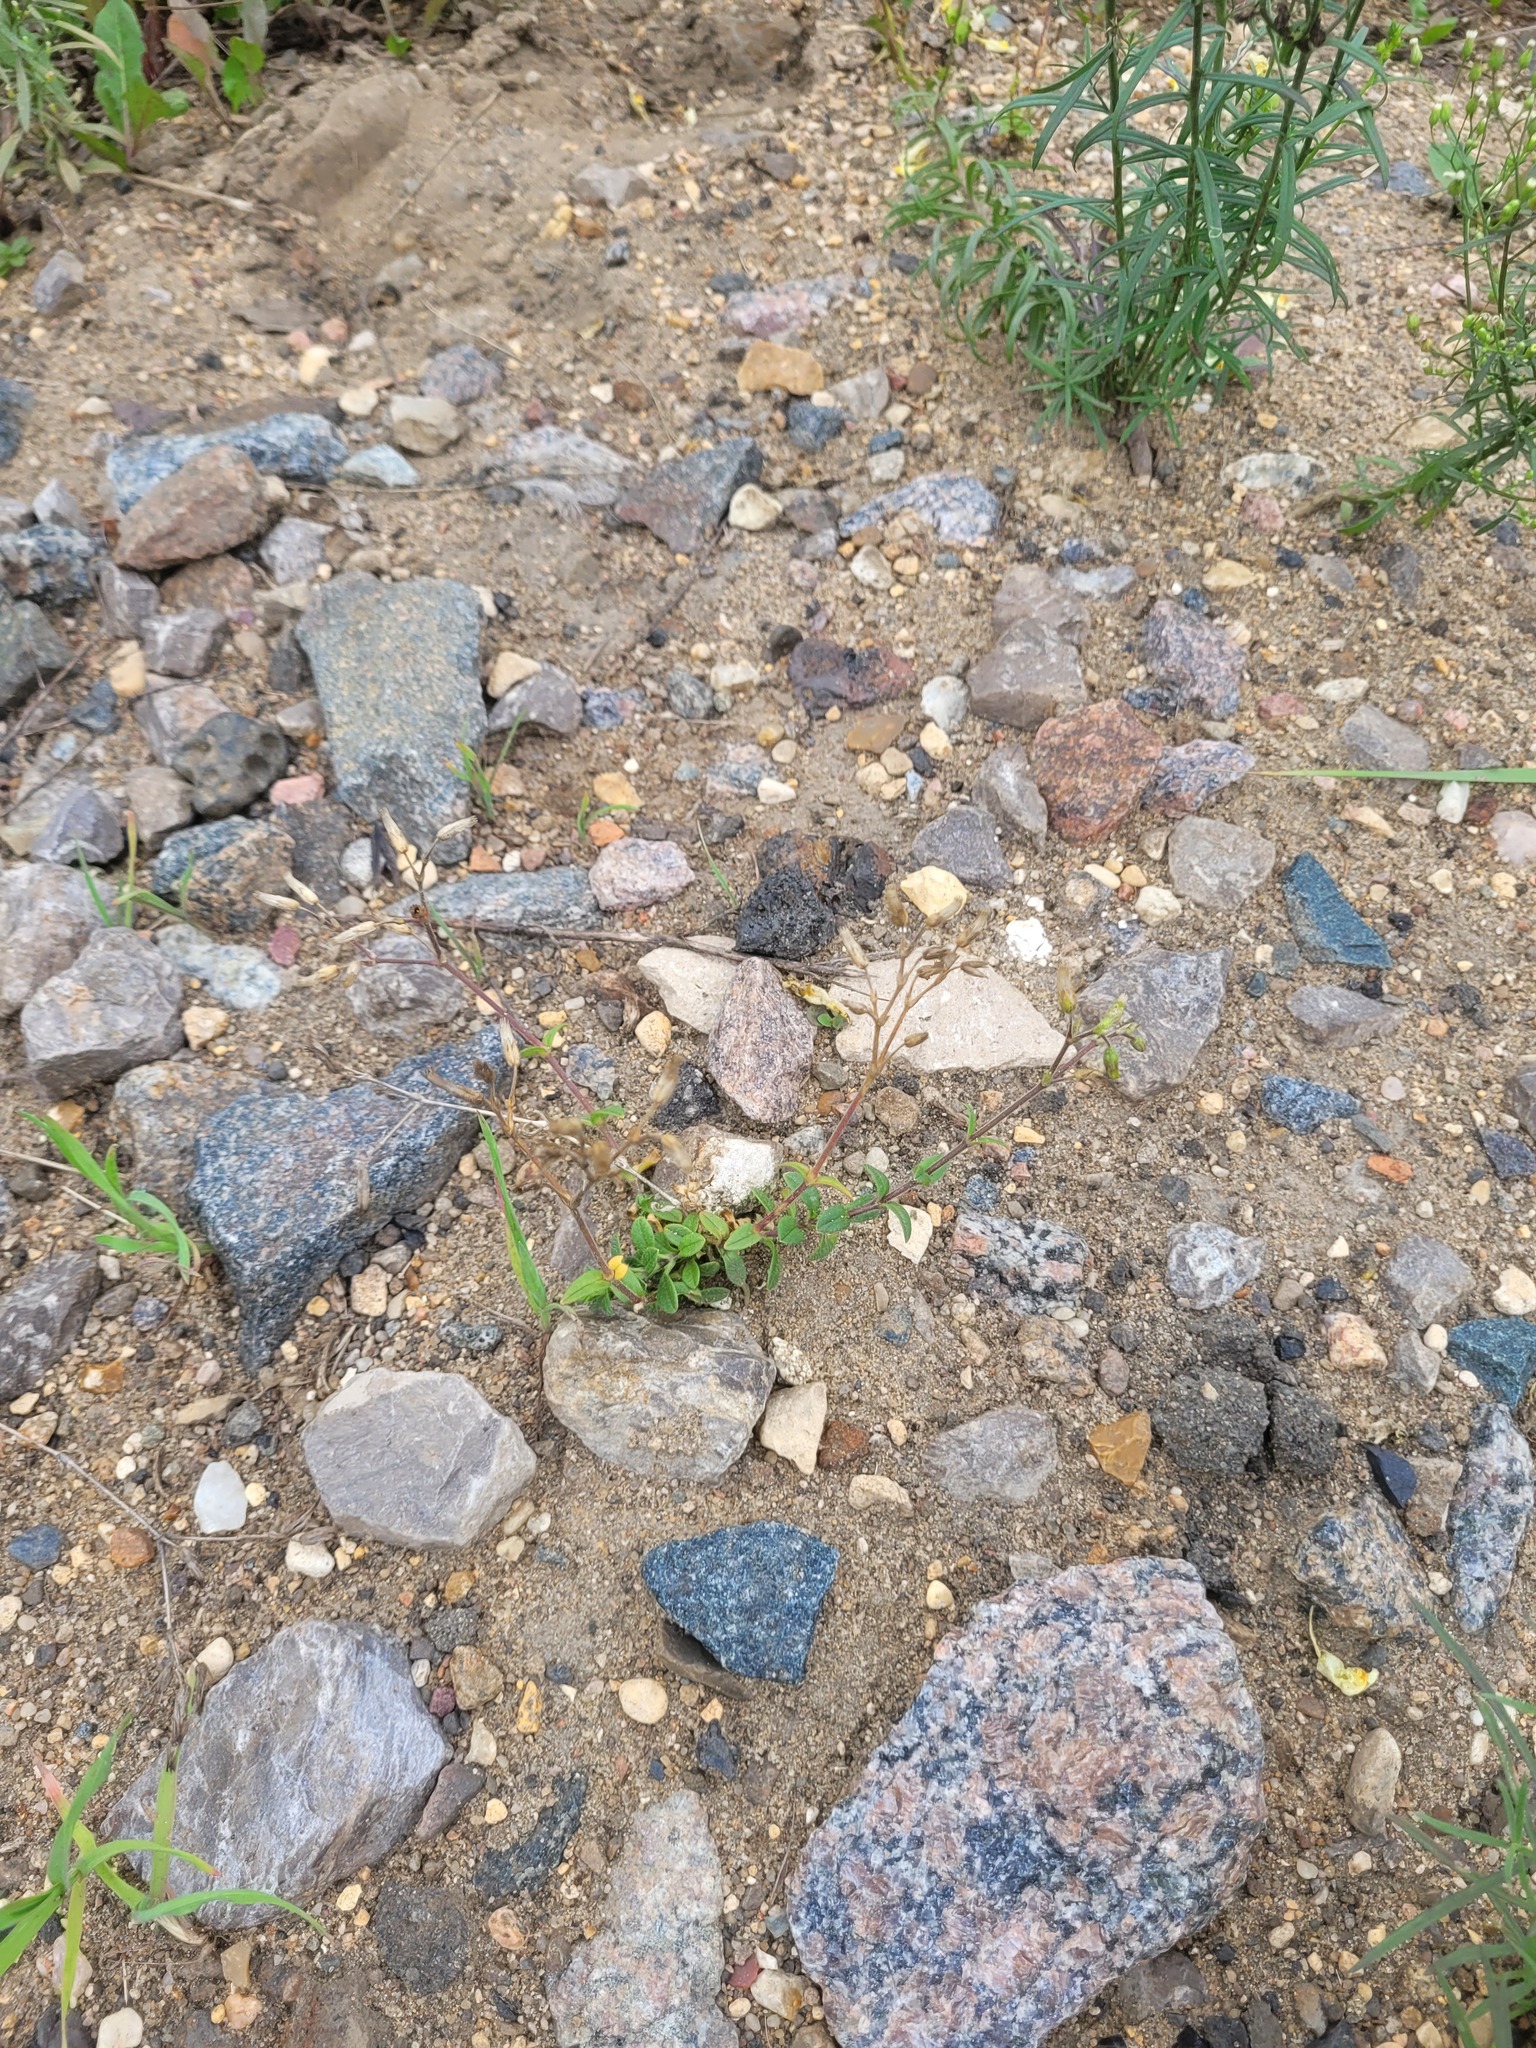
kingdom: Plantae
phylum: Tracheophyta
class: Magnoliopsida
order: Caryophyllales
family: Caryophyllaceae
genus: Cerastium
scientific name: Cerastium holosteoides
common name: Big chickweed
